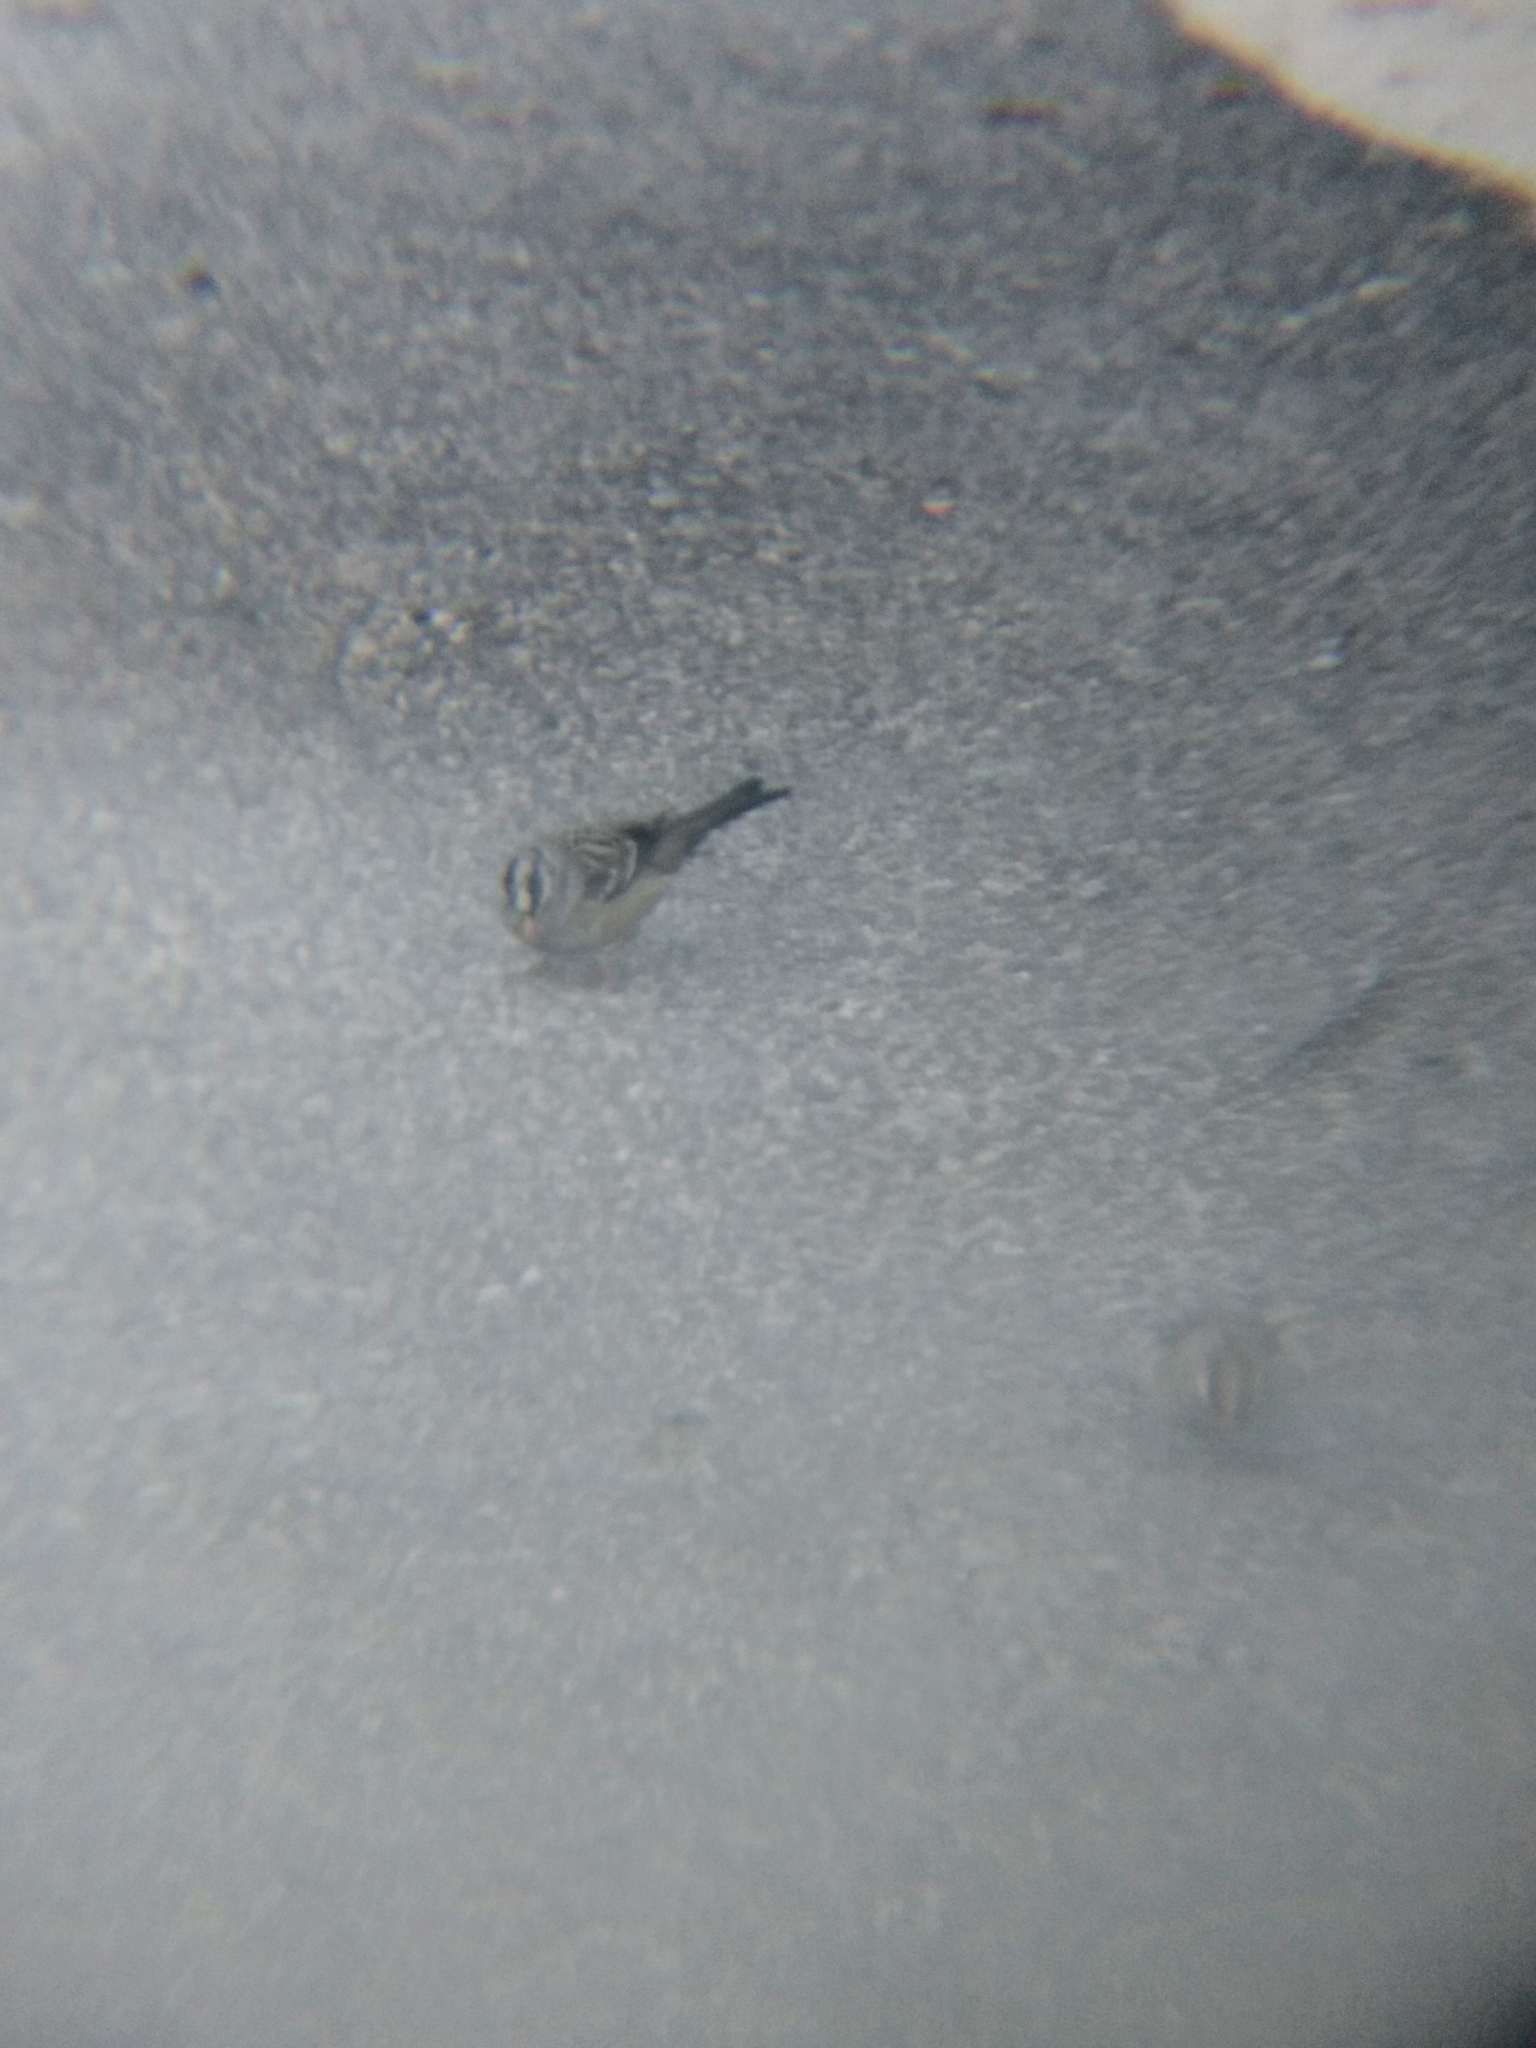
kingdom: Animalia
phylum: Chordata
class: Aves
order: Passeriformes
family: Passerellidae
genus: Zonotrichia
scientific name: Zonotrichia leucophrys
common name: White-crowned sparrow
